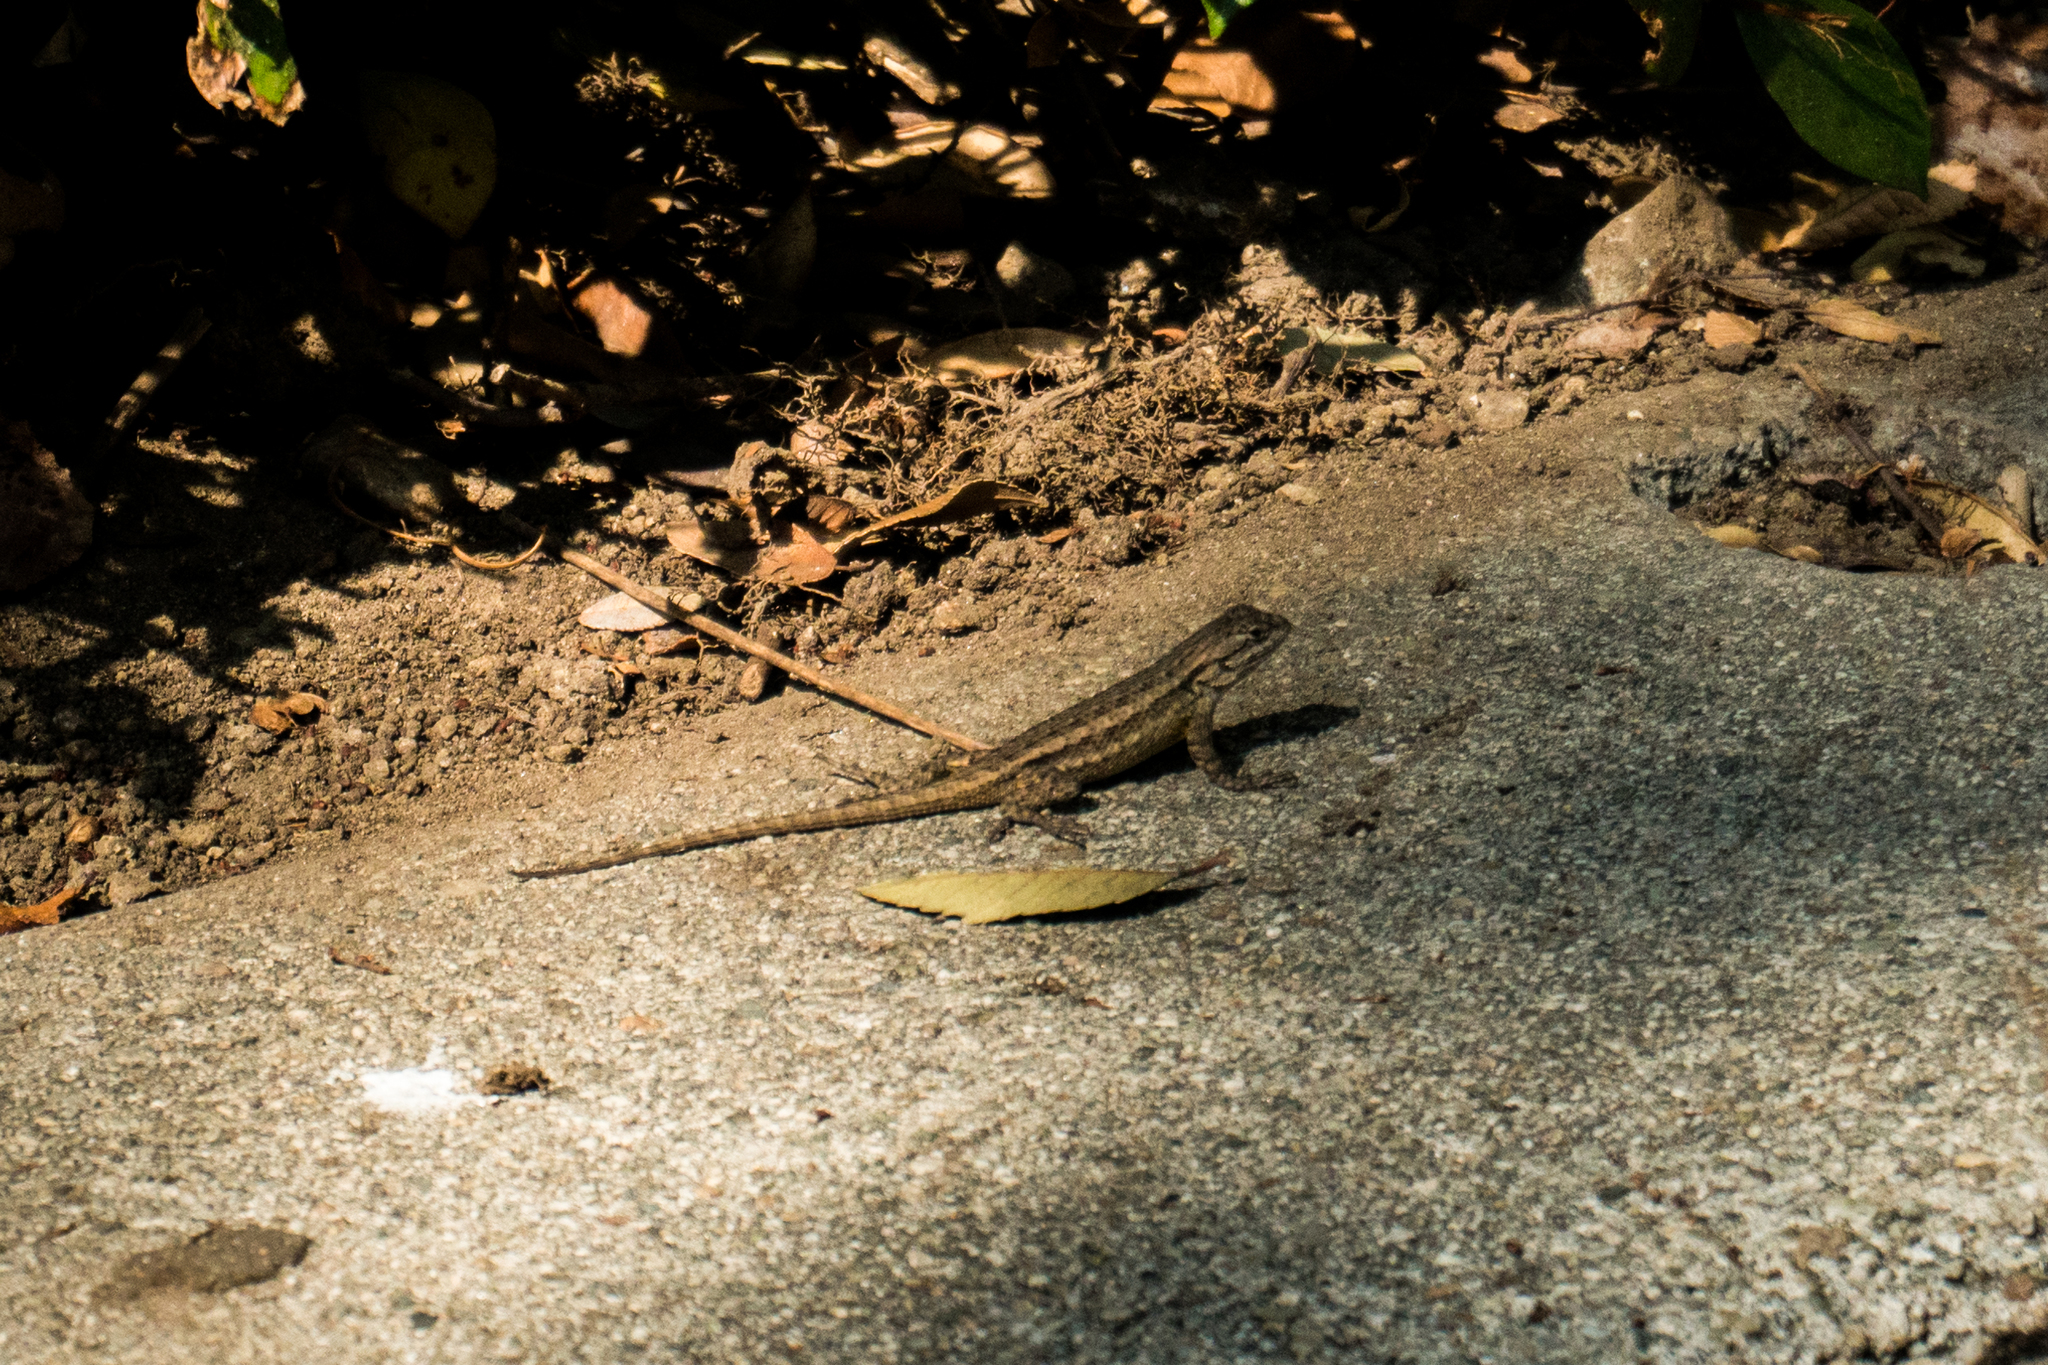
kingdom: Animalia
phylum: Chordata
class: Squamata
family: Phrynosomatidae
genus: Sceloporus
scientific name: Sceloporus occidentalis
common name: Western fence lizard
